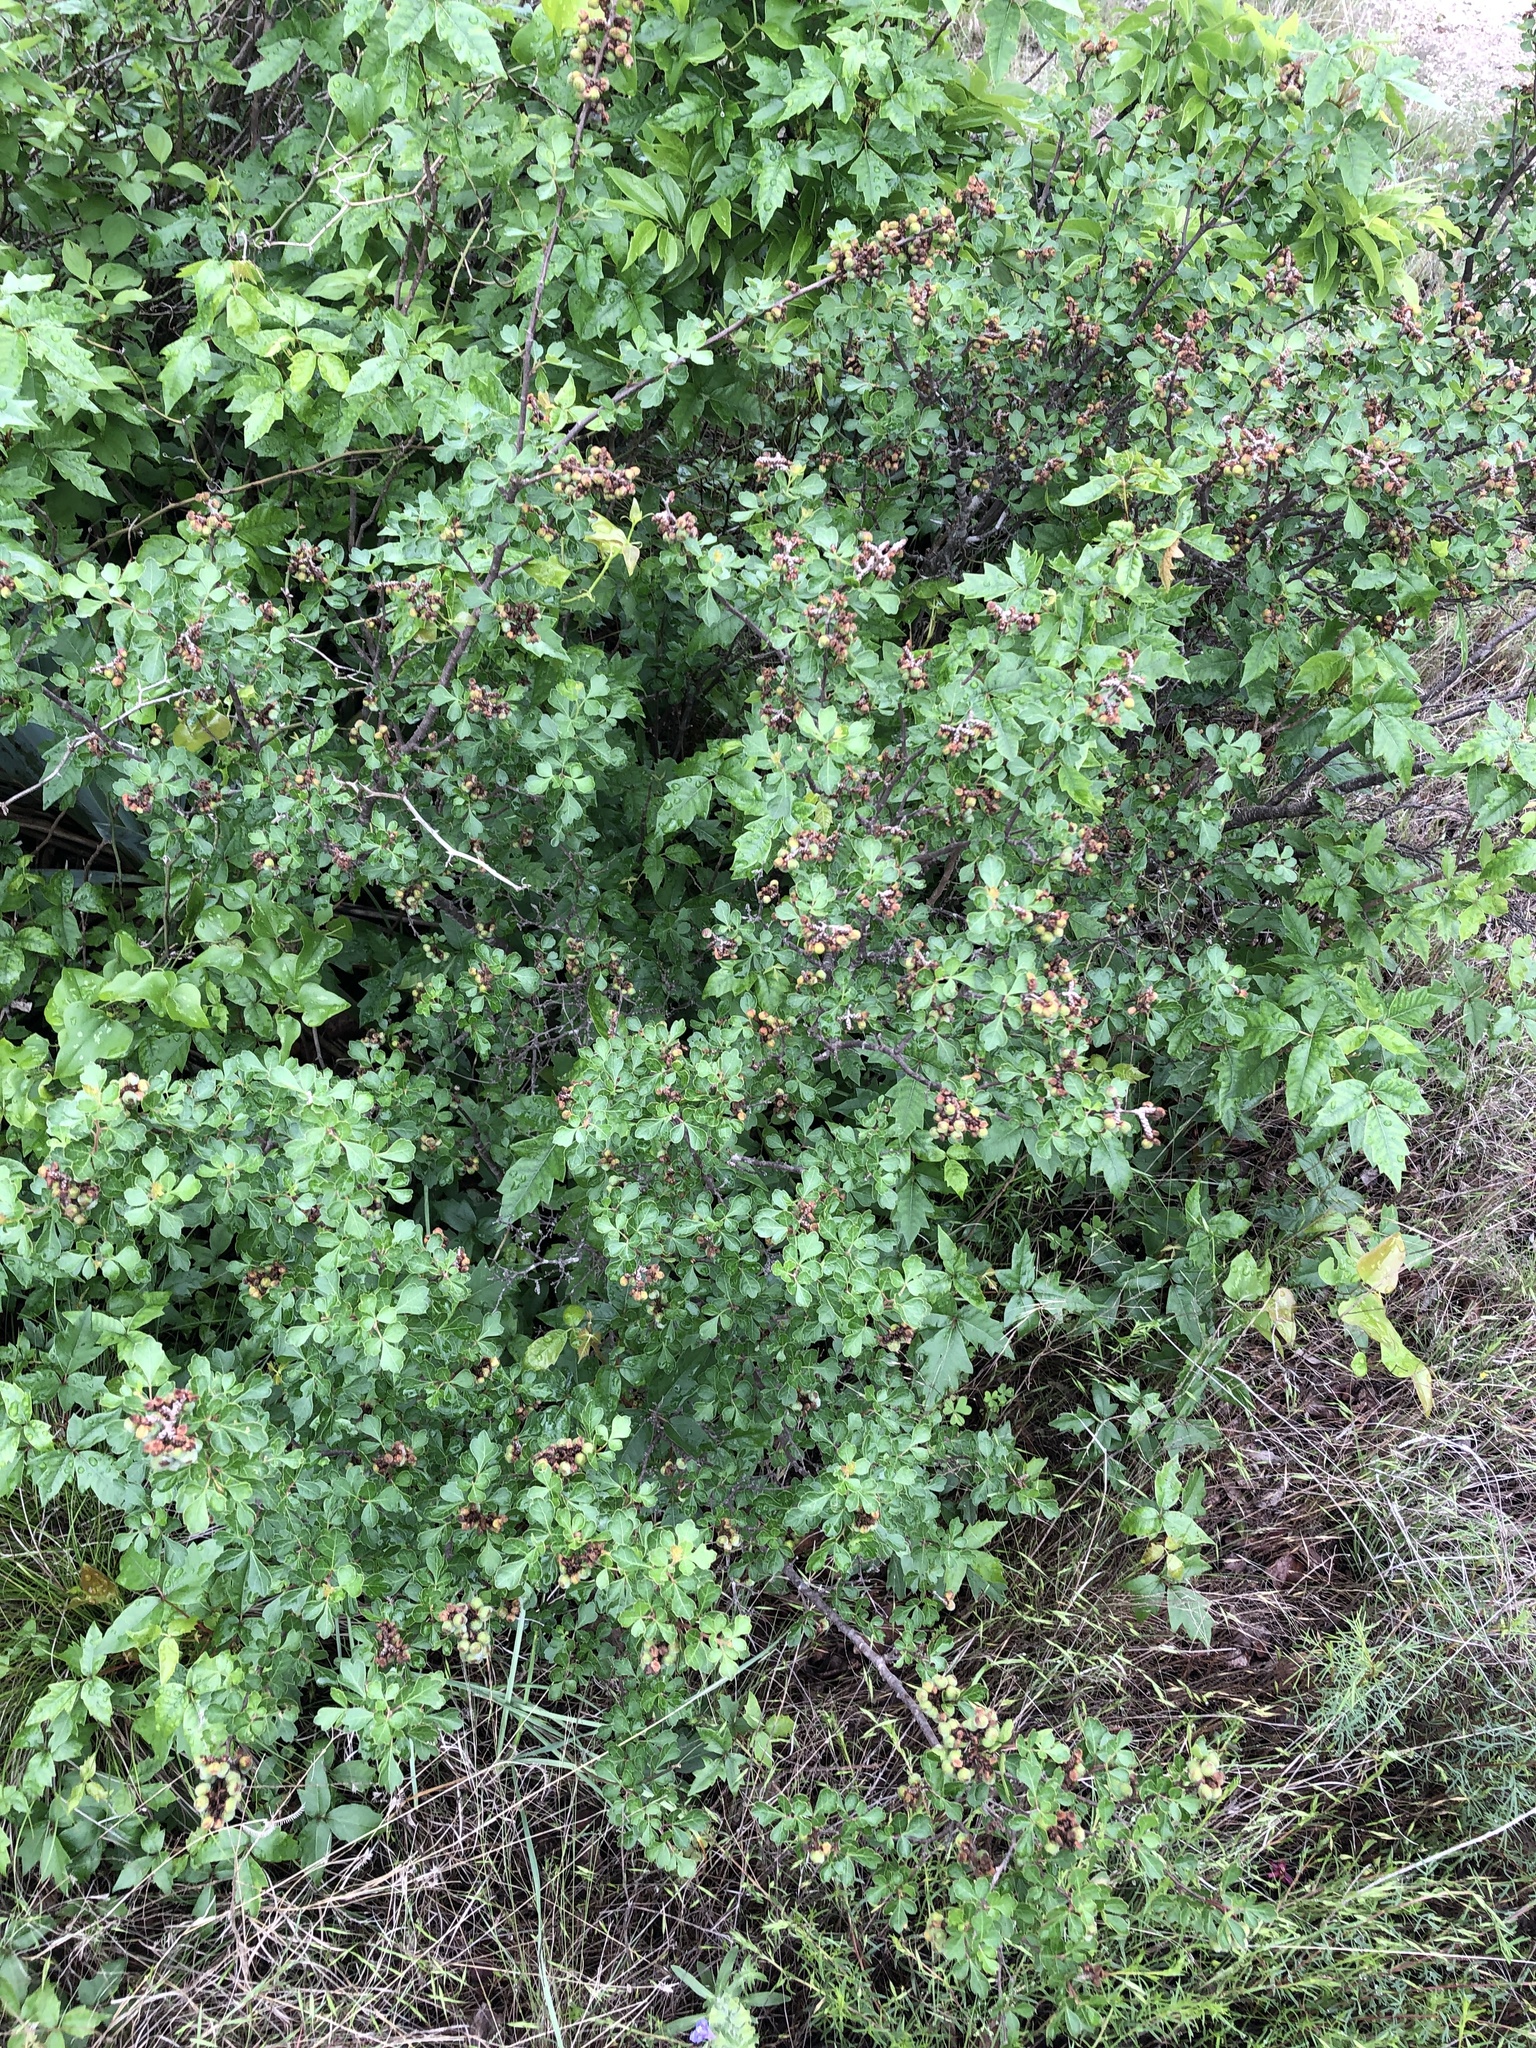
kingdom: Plantae
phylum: Tracheophyta
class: Magnoliopsida
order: Sapindales
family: Anacardiaceae
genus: Rhus
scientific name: Rhus aromatica
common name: Aromatic sumac
